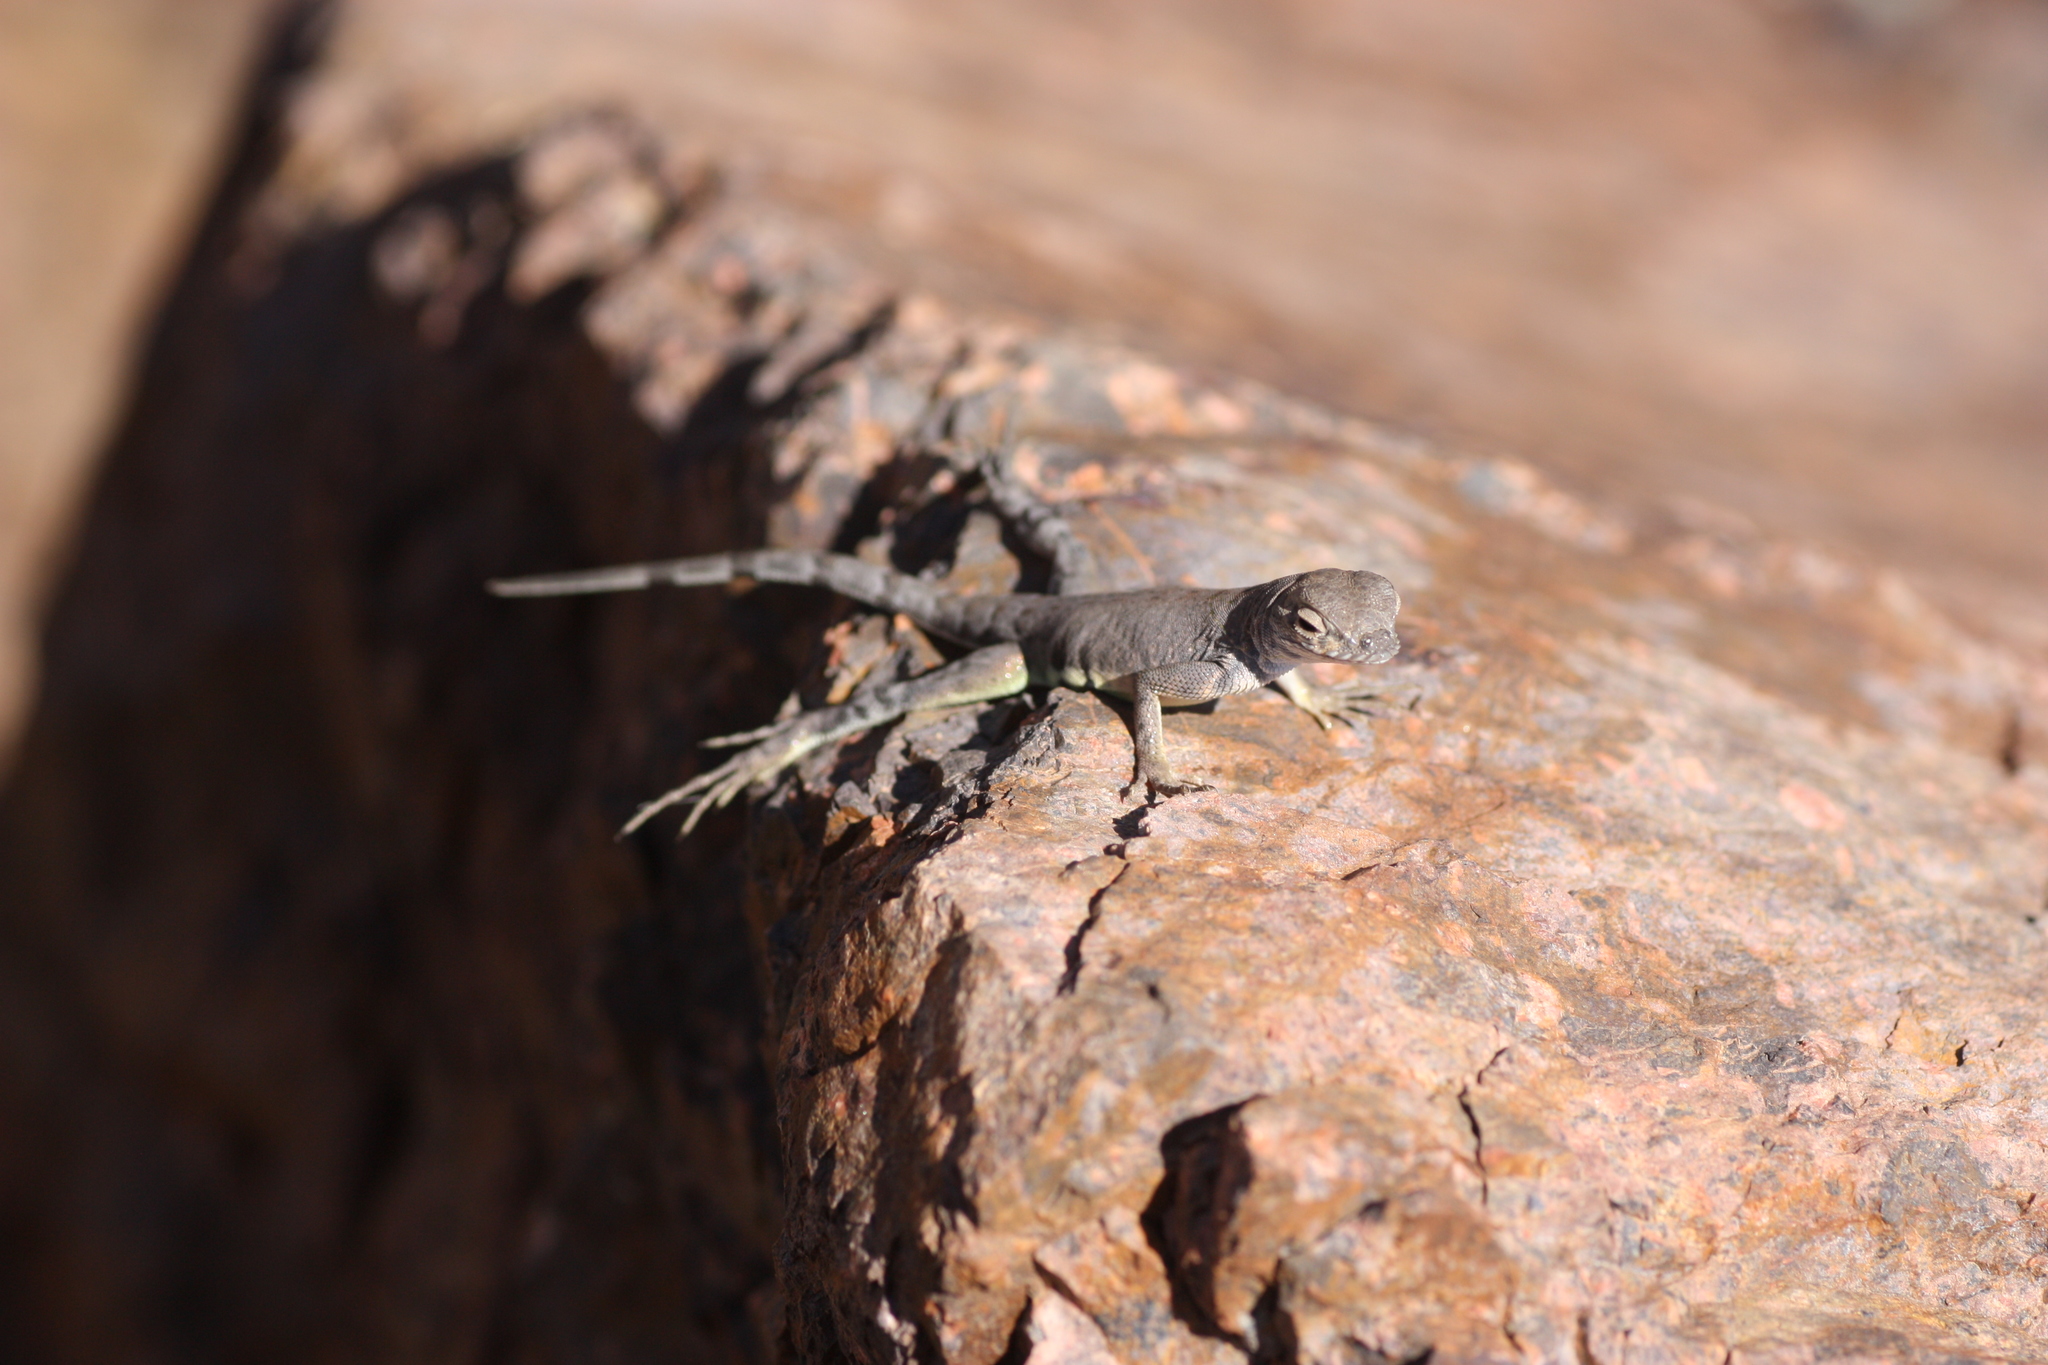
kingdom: Animalia
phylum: Chordata
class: Squamata
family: Phrynosomatidae
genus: Cophosaurus
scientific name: Cophosaurus texanus
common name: Greater earless lizard
